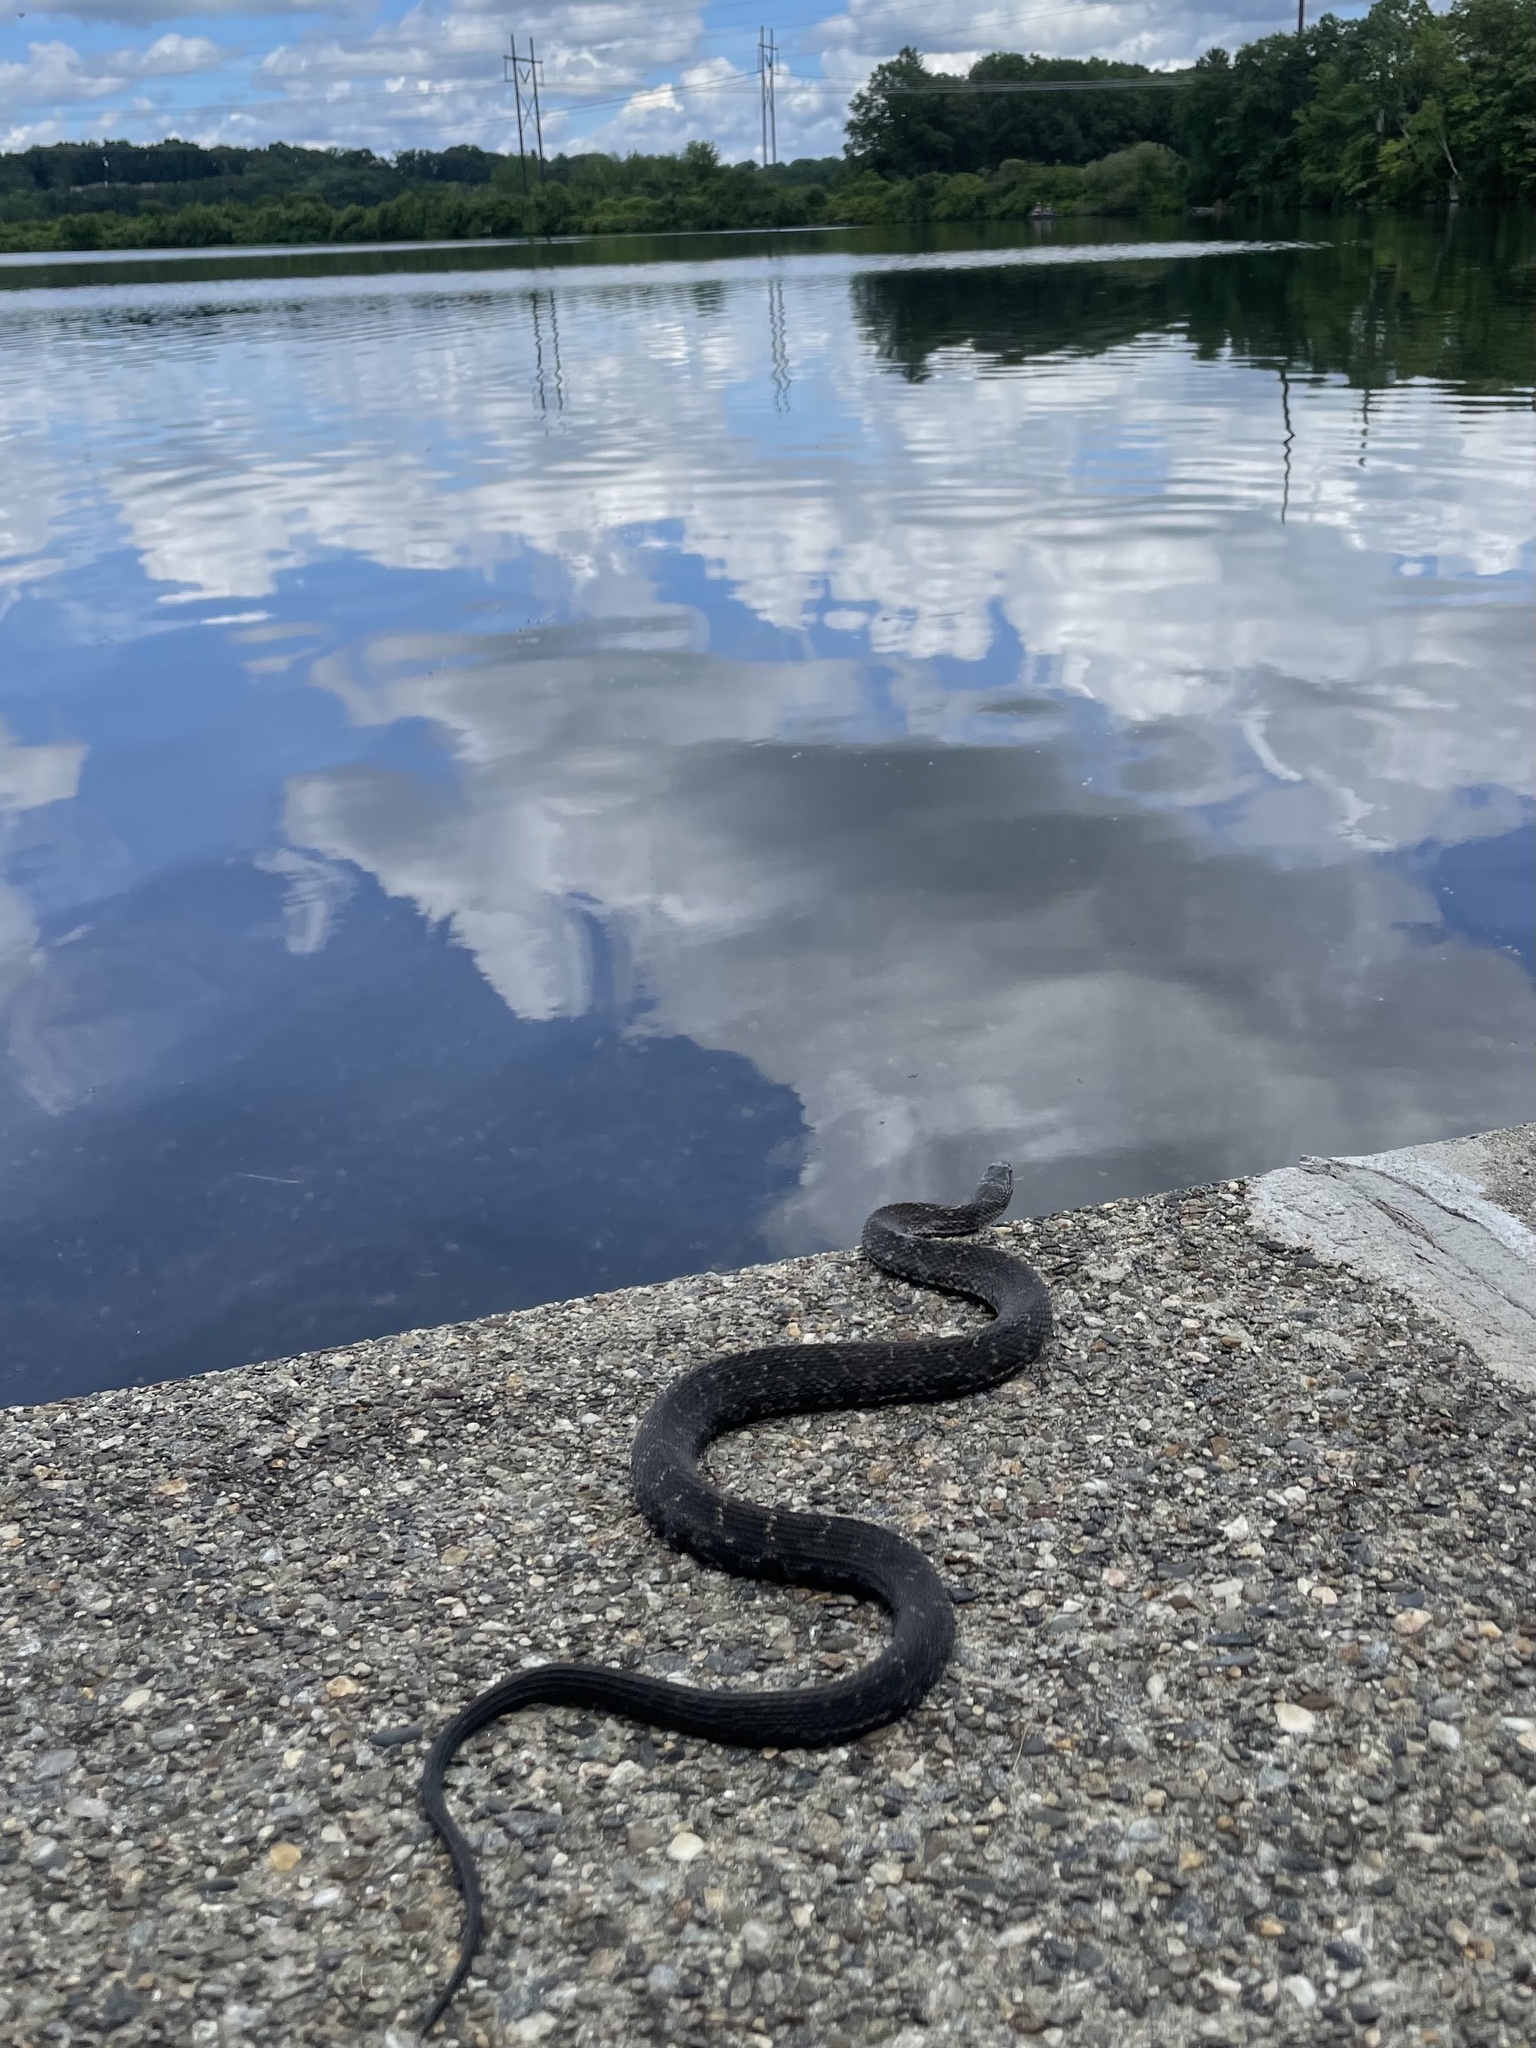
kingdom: Animalia
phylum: Chordata
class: Squamata
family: Colubridae
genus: Nerodia
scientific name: Nerodia sipedon
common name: Northern water snake
